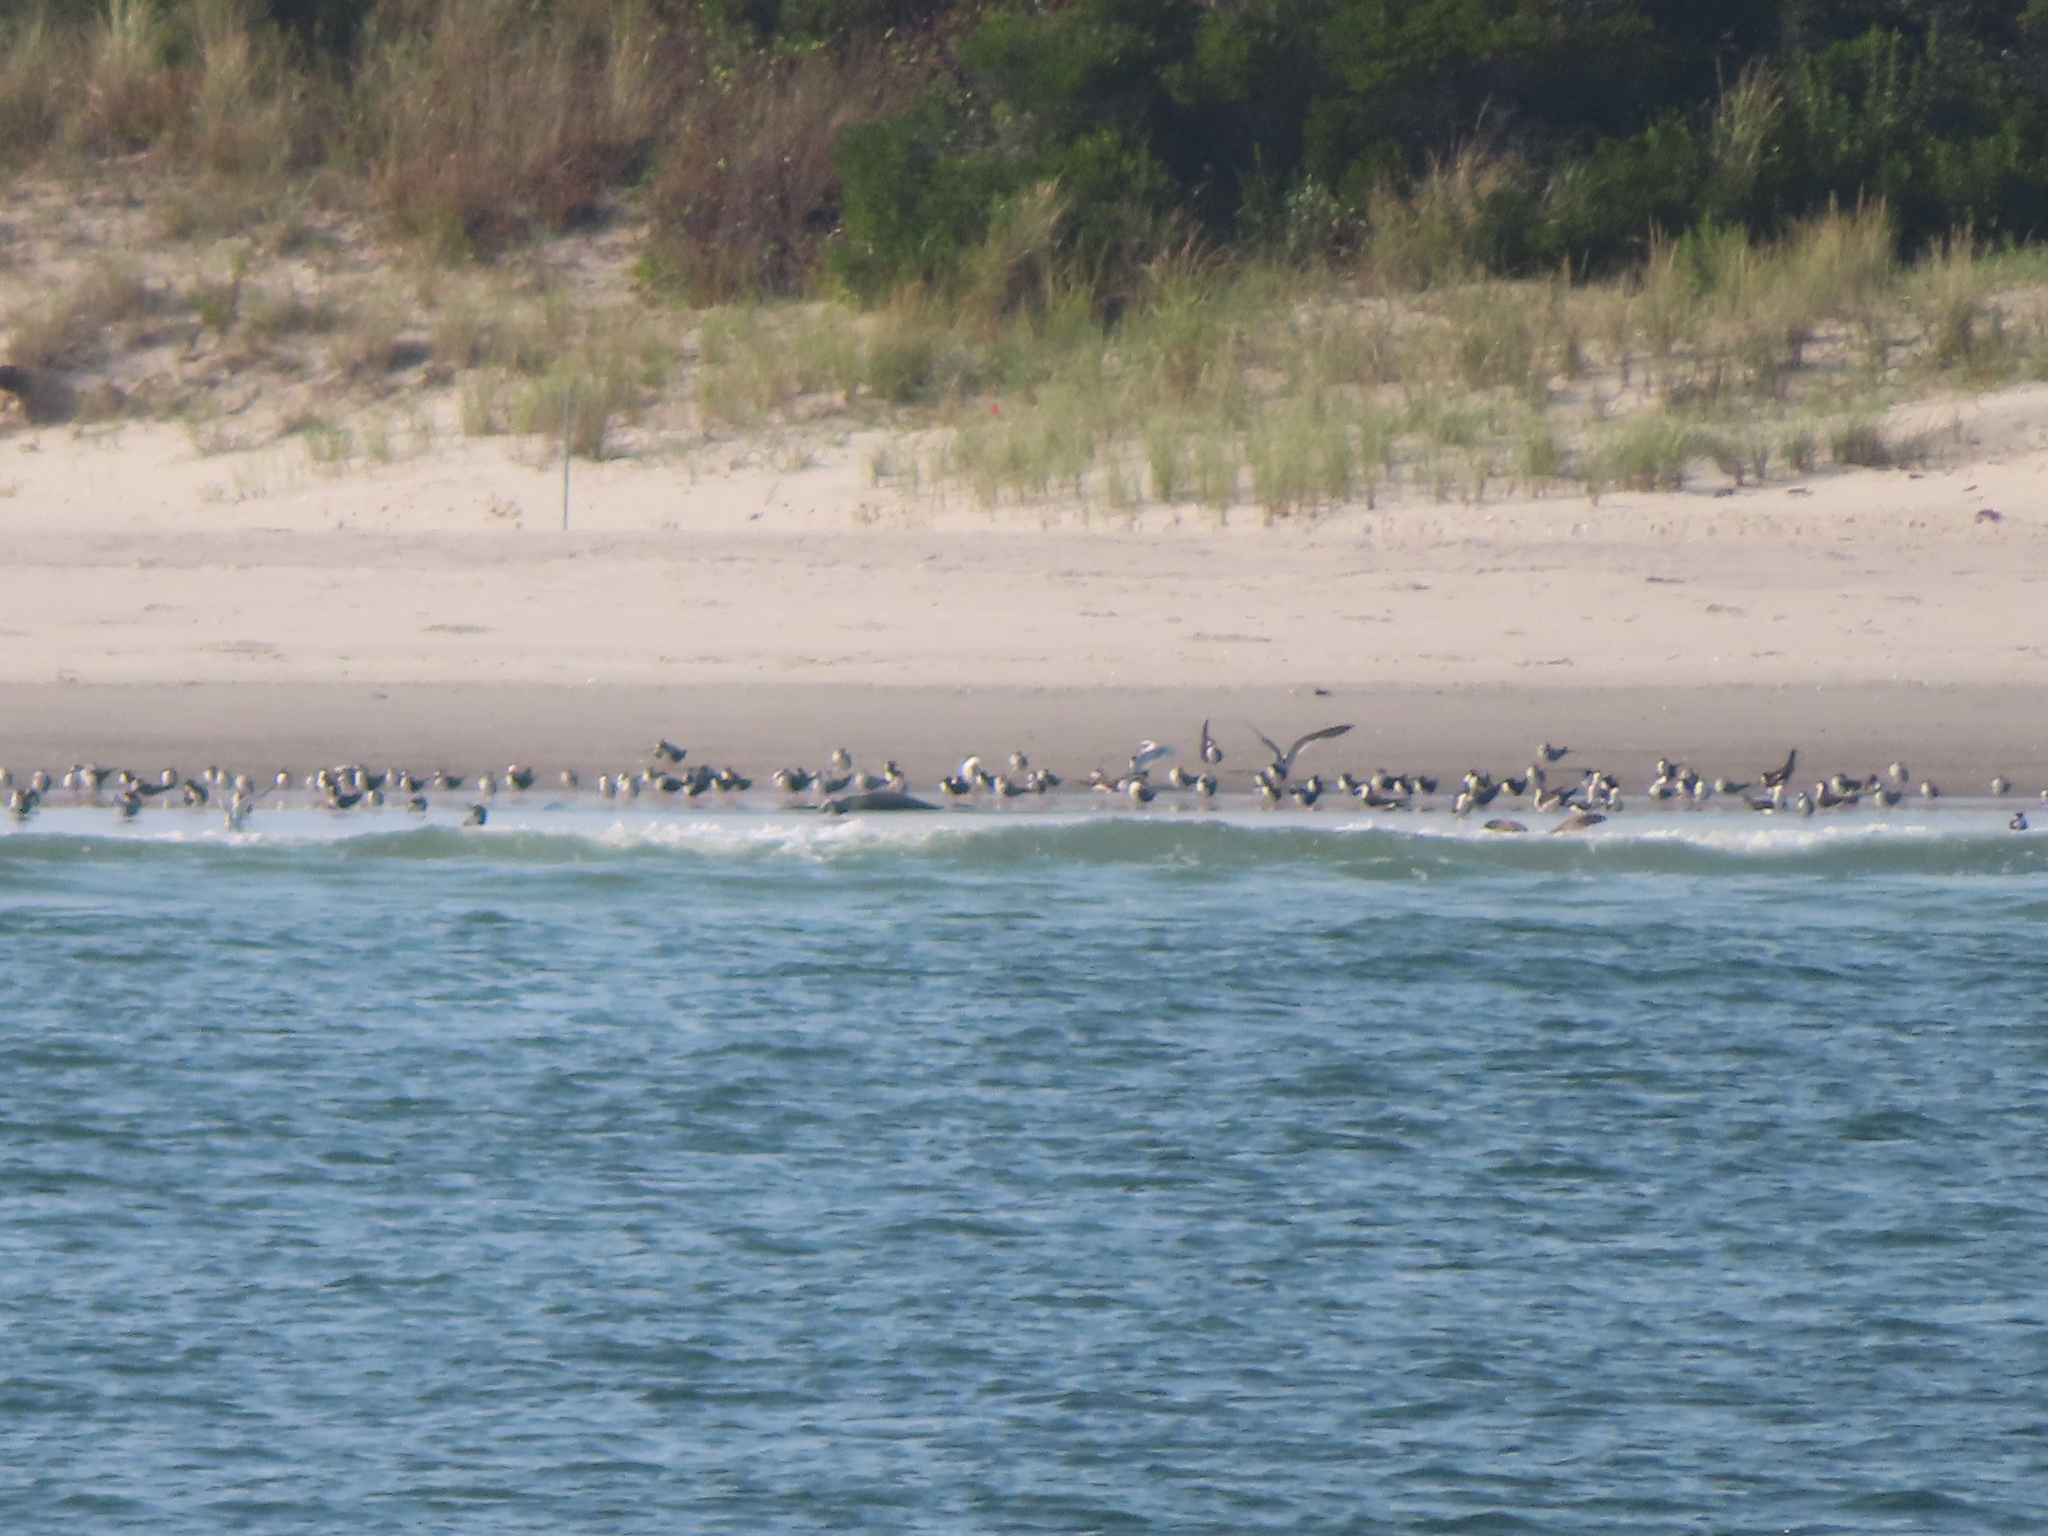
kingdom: Animalia
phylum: Chordata
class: Aves
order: Charadriiformes
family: Laridae
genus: Rynchops
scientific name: Rynchops niger
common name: Black skimmer
